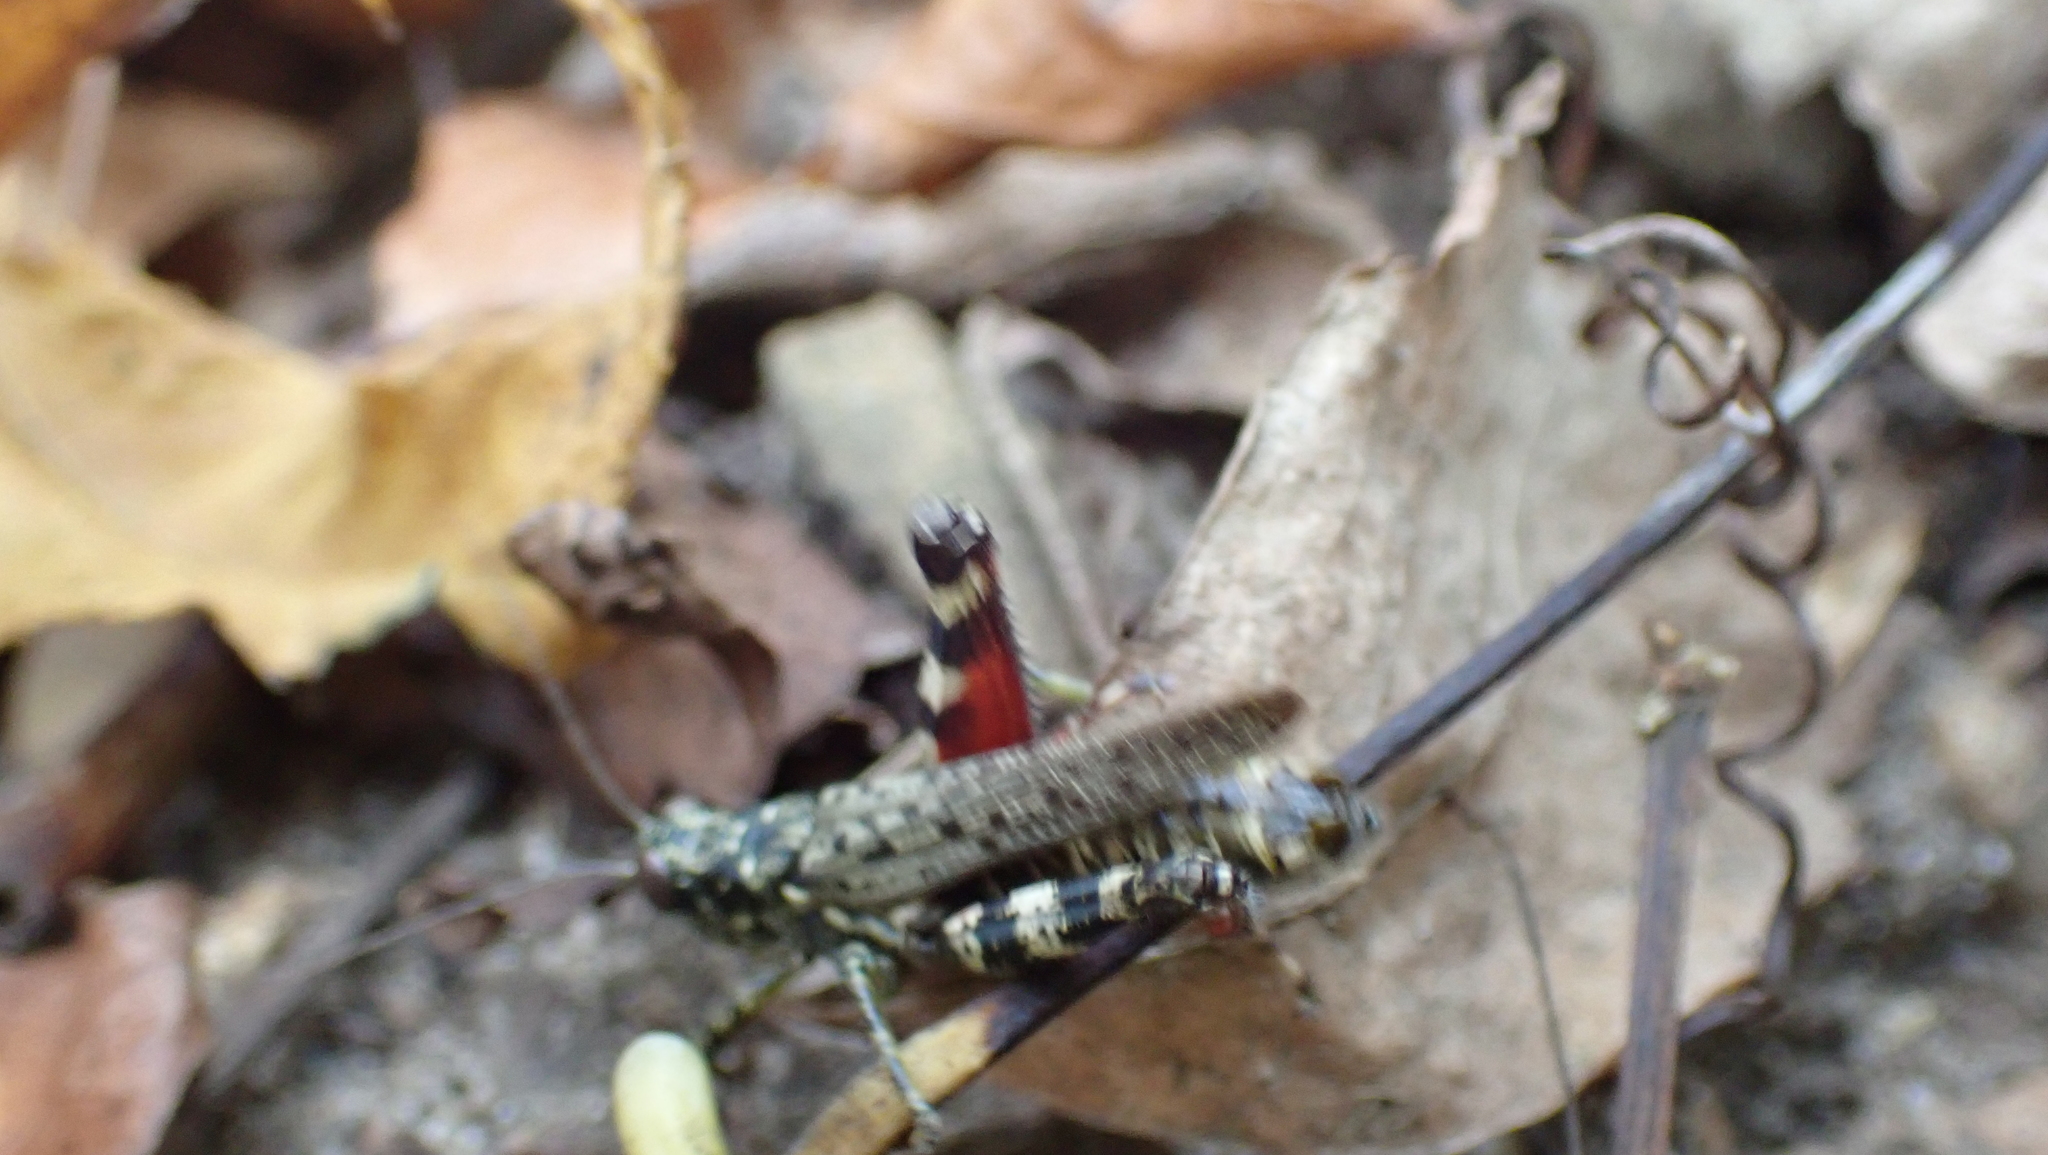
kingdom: Animalia
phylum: Arthropoda
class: Insecta
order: Orthoptera
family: Acrididae
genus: Melanoplus
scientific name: Melanoplus punctulatus
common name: Pine-tree spur-throat grasshopper
